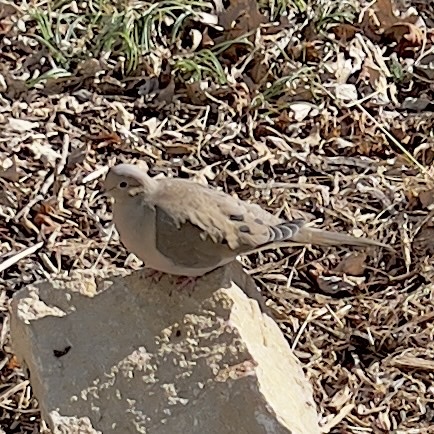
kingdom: Animalia
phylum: Chordata
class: Aves
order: Columbiformes
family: Columbidae
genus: Zenaida
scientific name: Zenaida macroura
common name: Mourning dove
